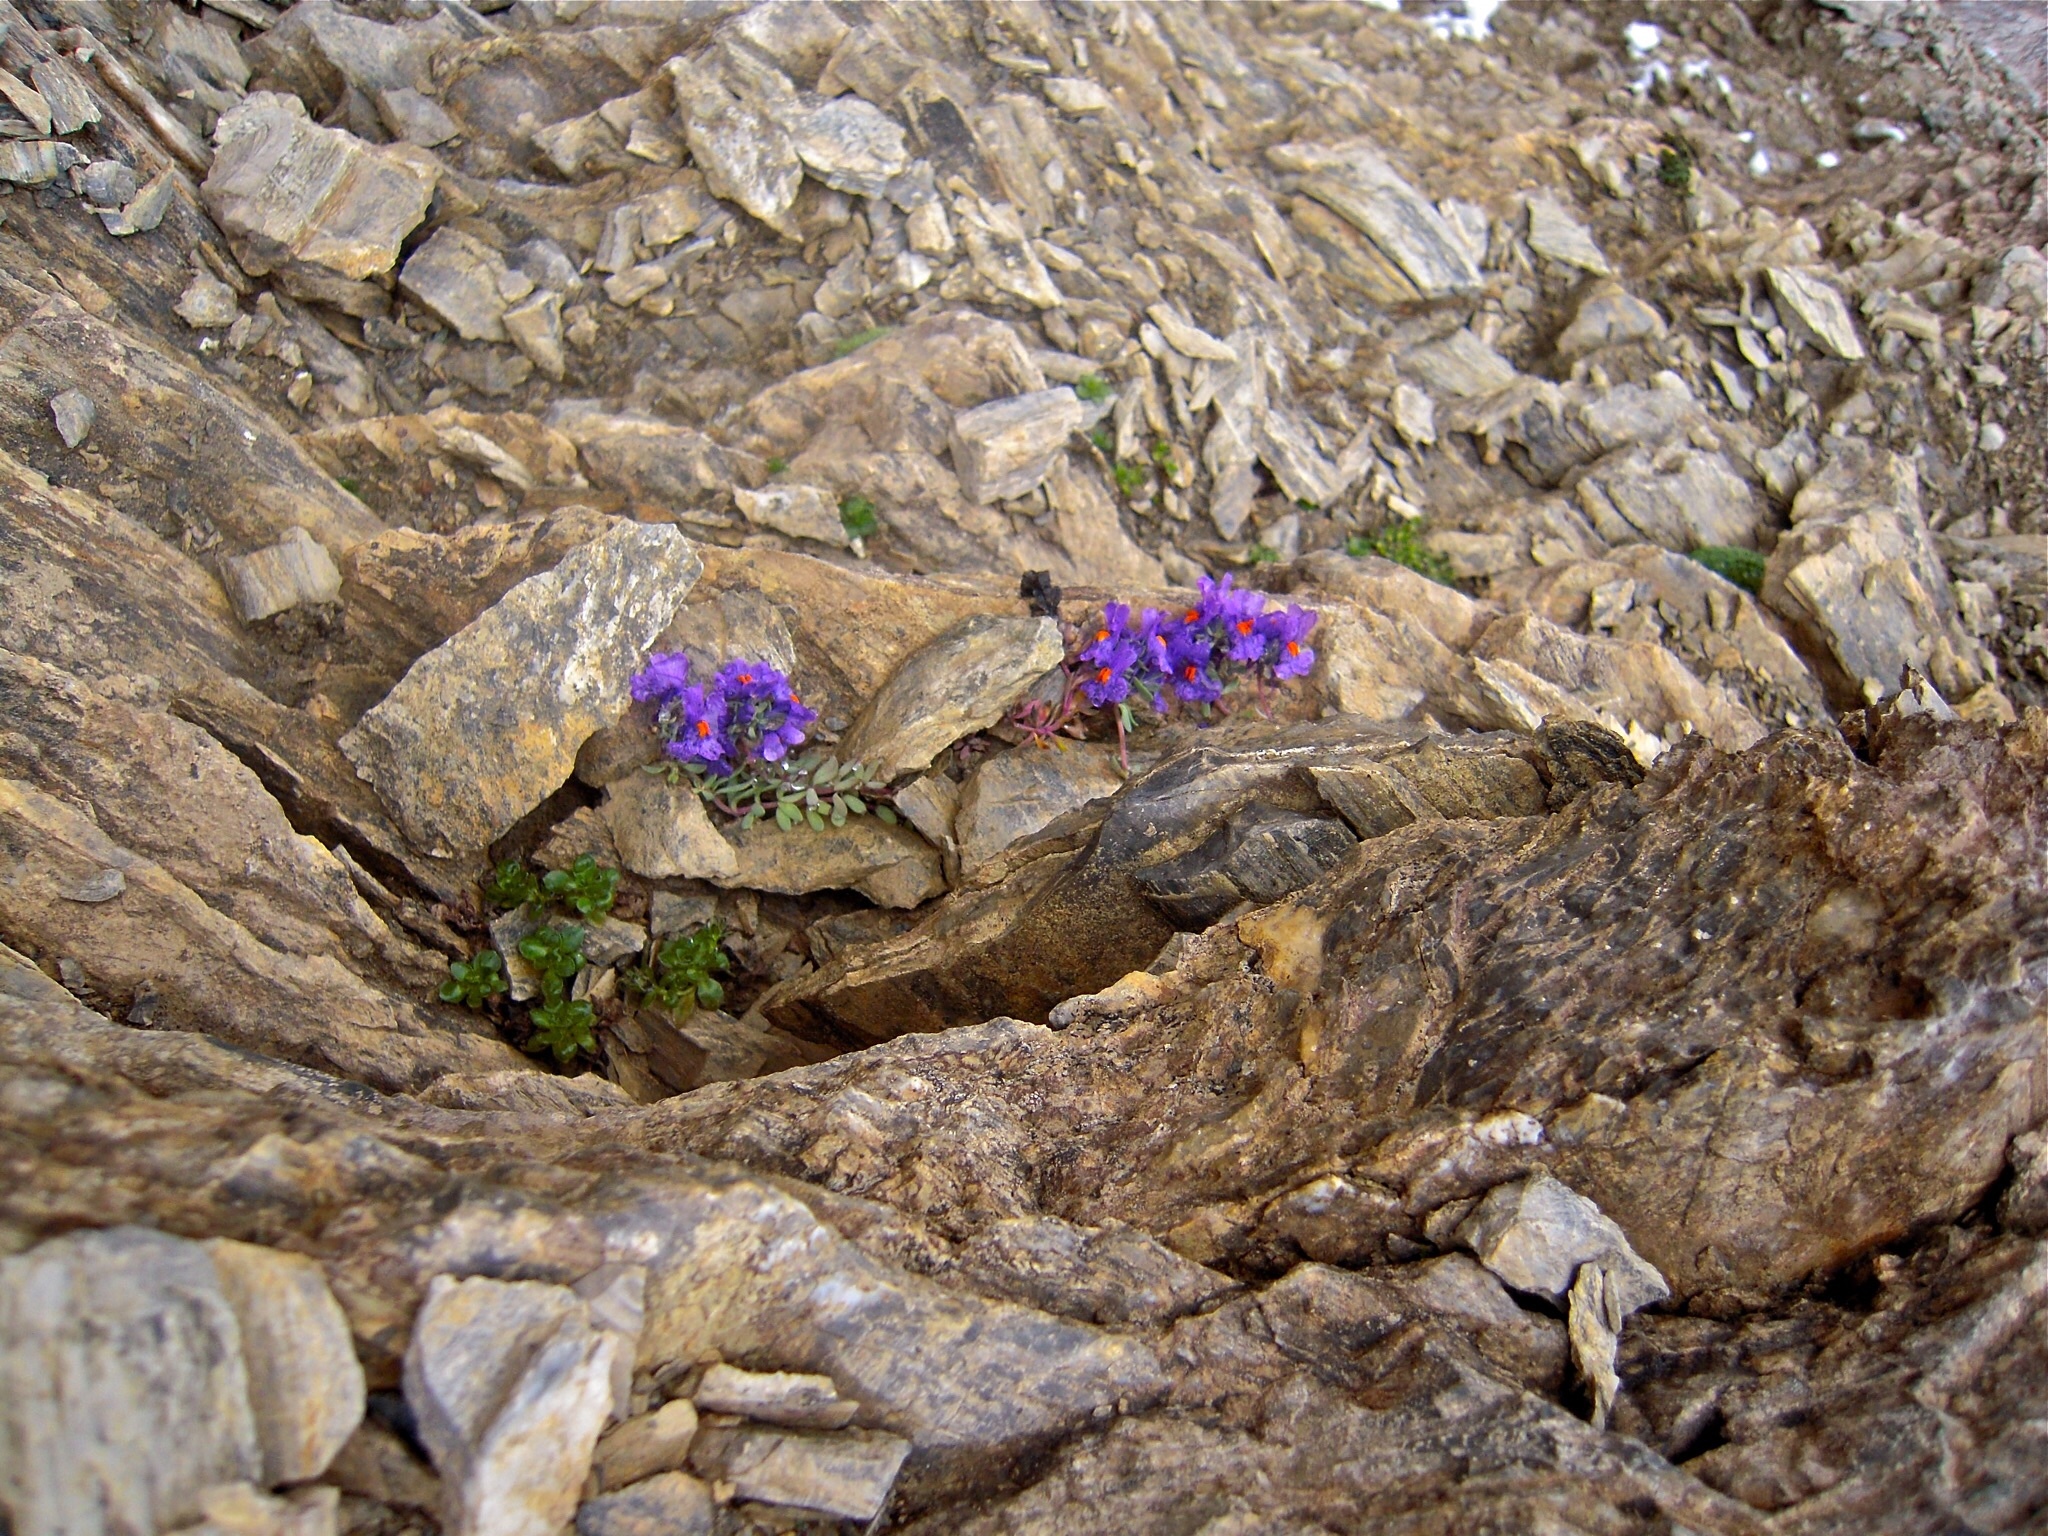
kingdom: Plantae
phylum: Tracheophyta
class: Magnoliopsida
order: Lamiales
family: Plantaginaceae
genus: Linaria
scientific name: Linaria alpina
